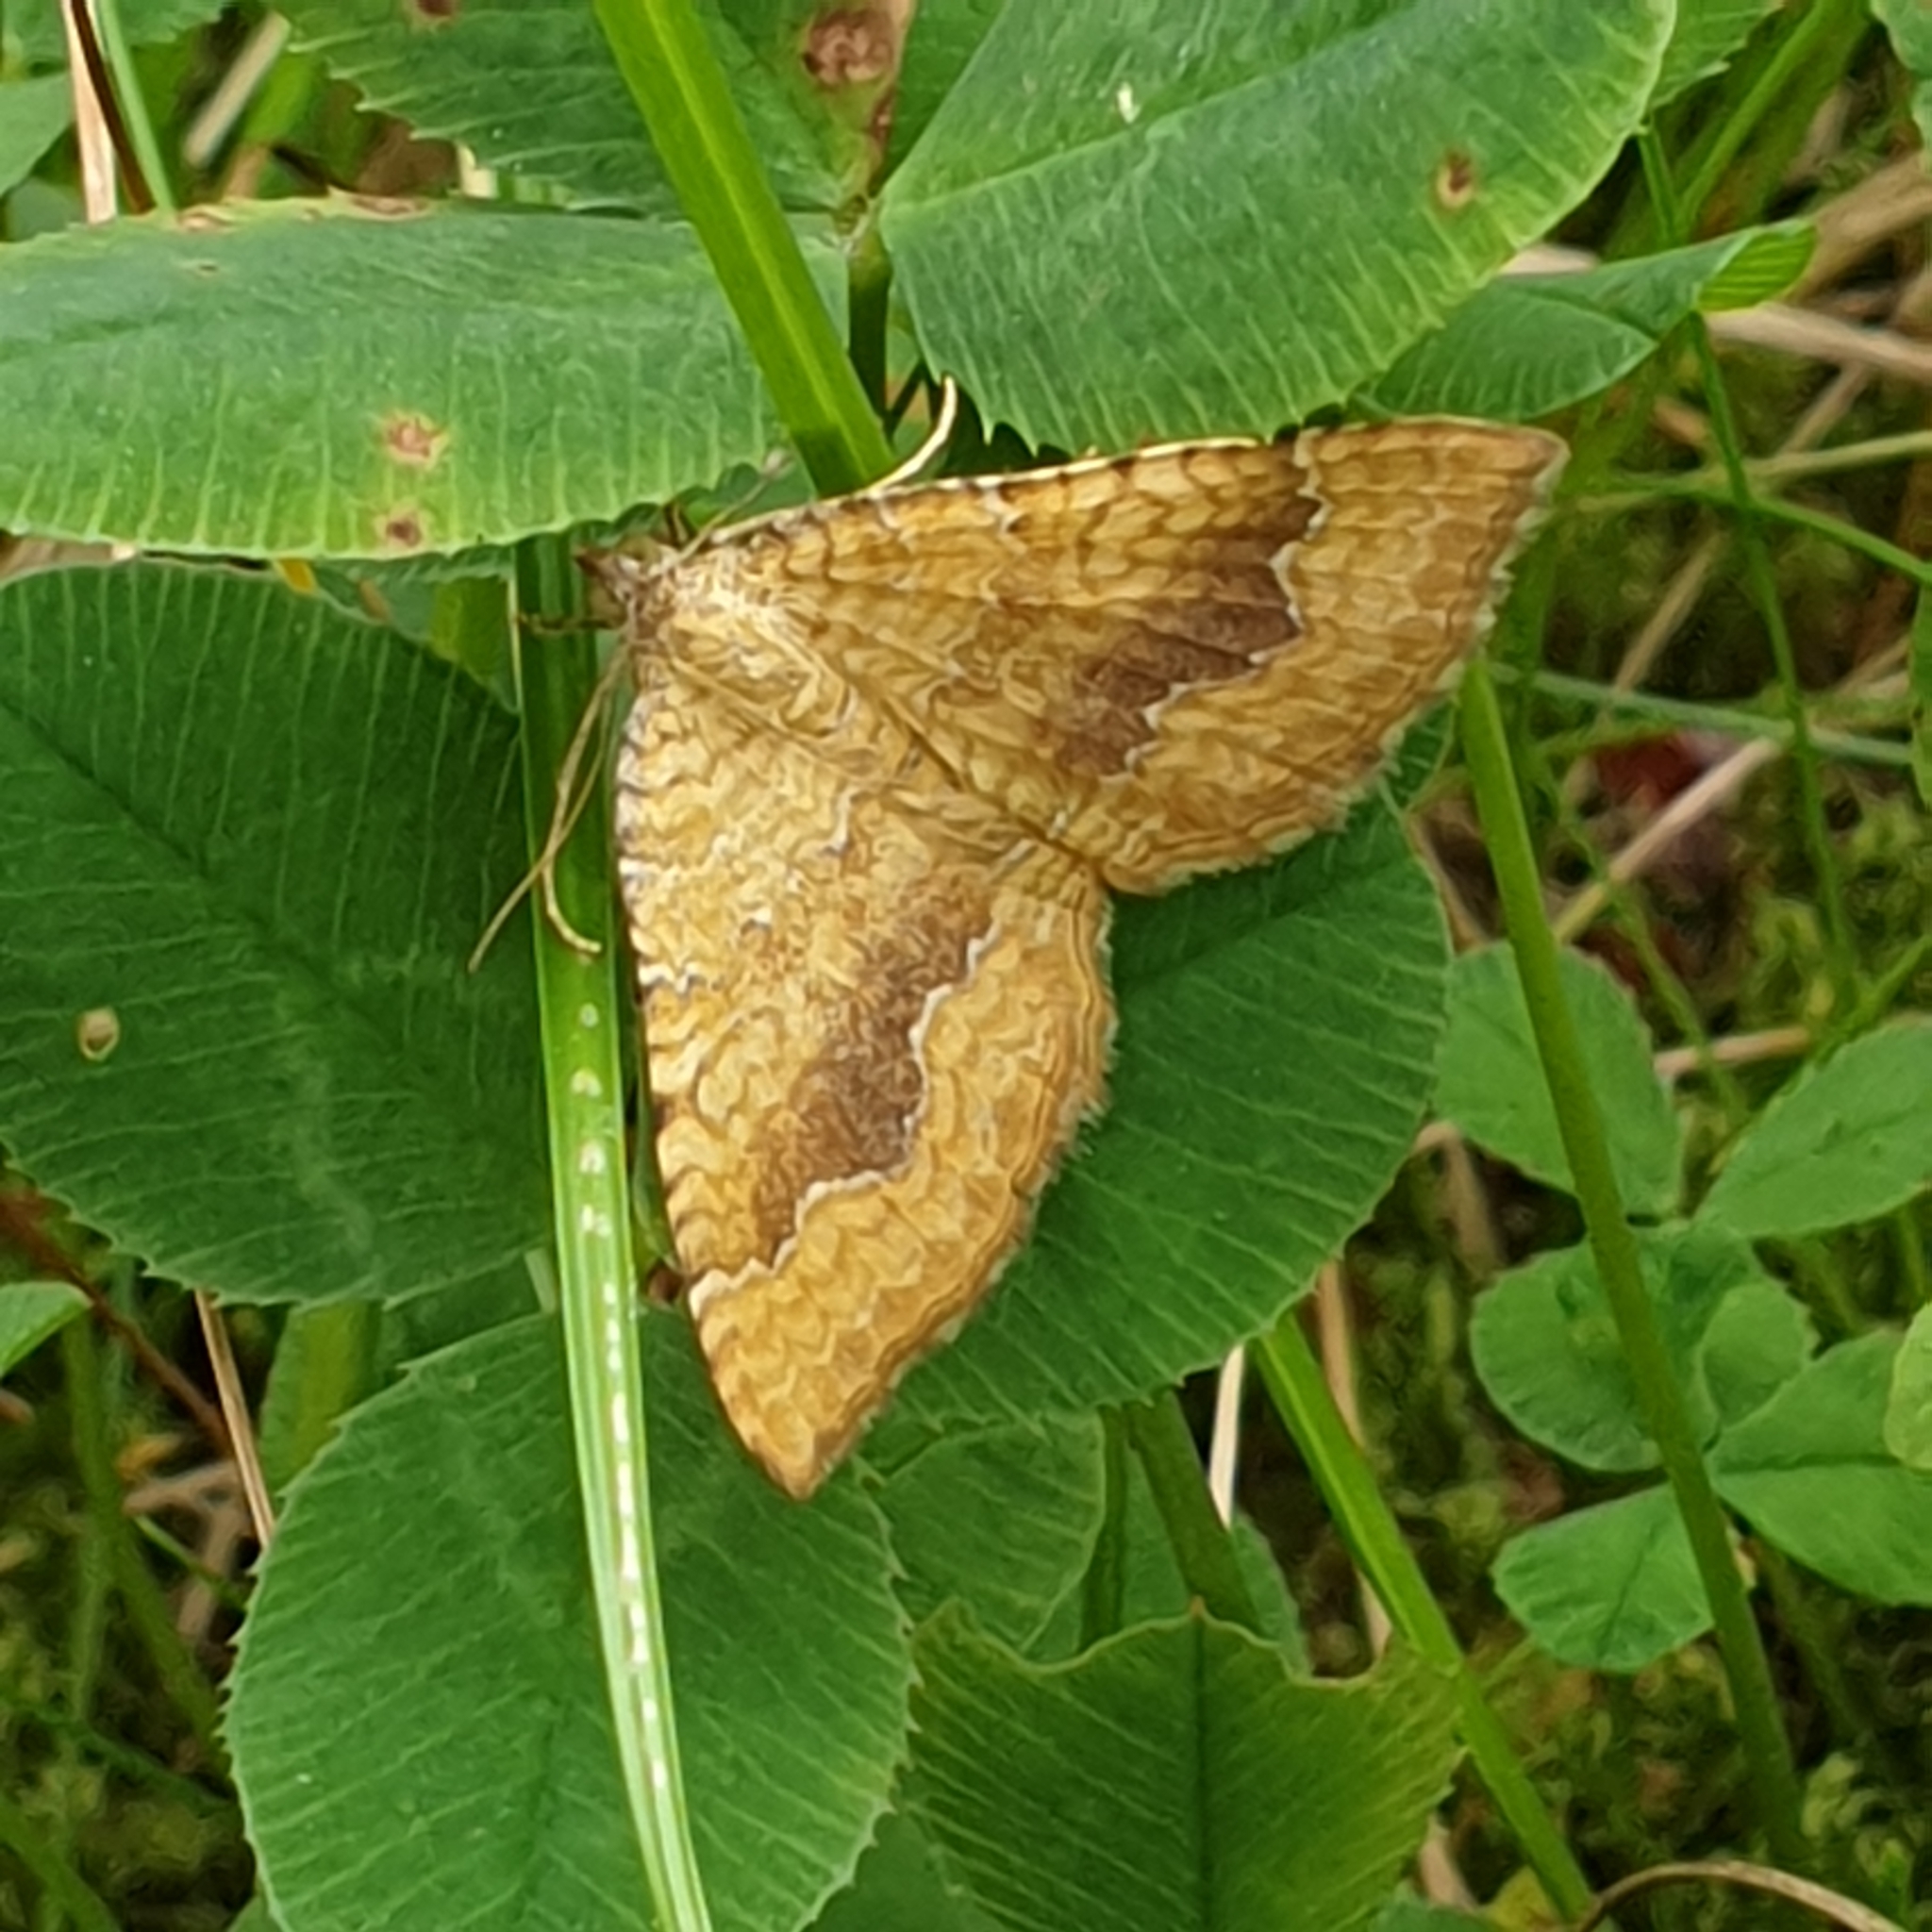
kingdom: Animalia
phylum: Arthropoda
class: Insecta
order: Lepidoptera
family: Geometridae
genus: Camptogramma
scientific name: Camptogramma bilineata
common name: Yellow shell
